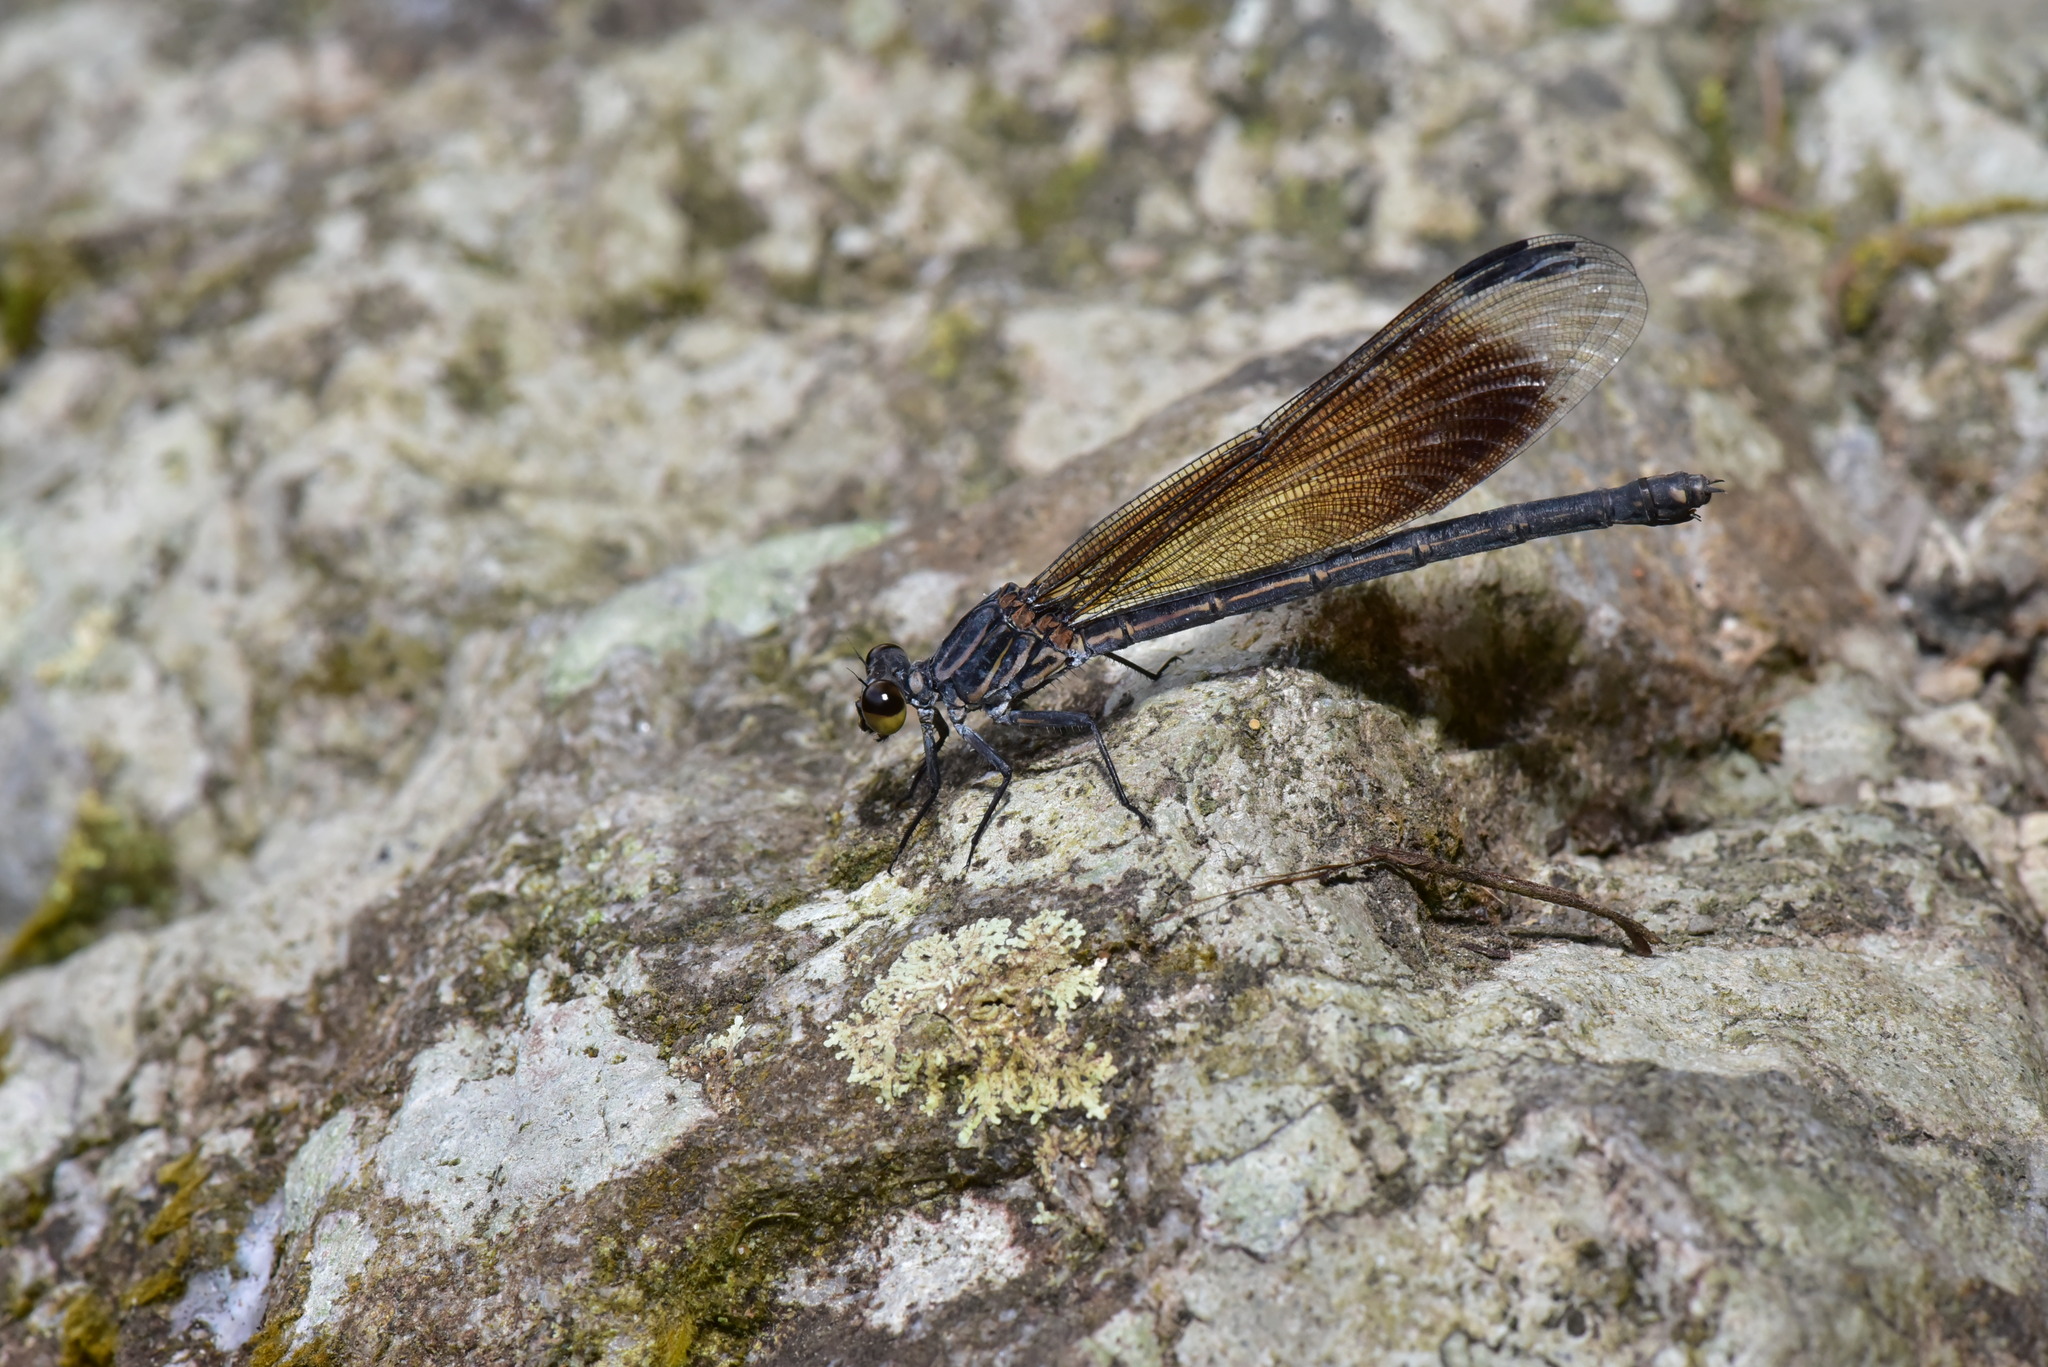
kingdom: Animalia
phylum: Arthropoda
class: Insecta
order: Odonata
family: Euphaeidae
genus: Euphaea
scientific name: Euphaea formosa
